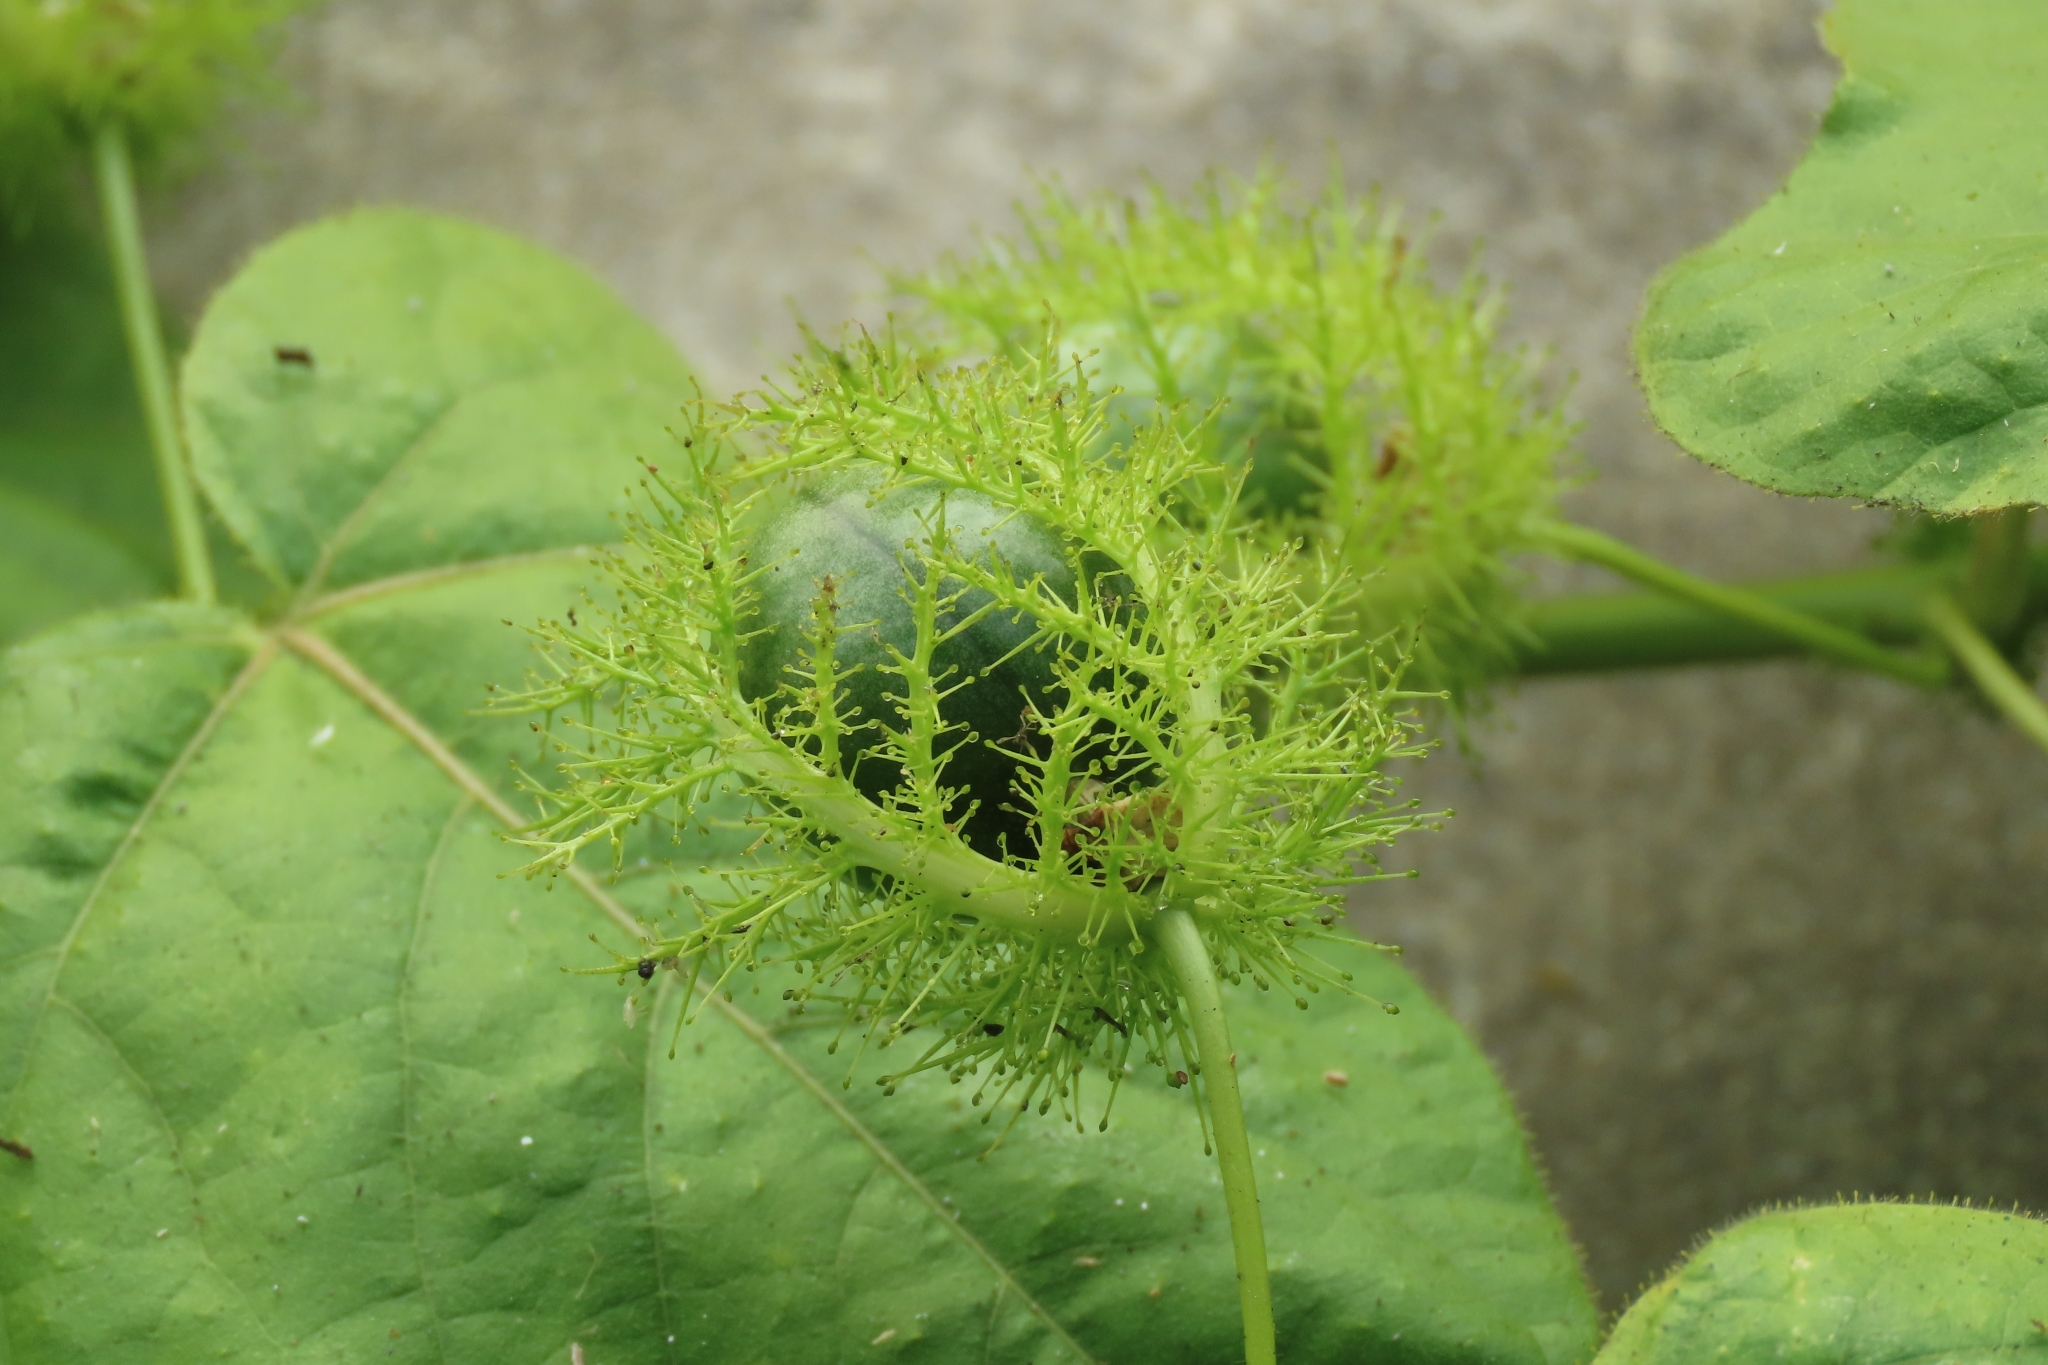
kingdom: Plantae
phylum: Tracheophyta
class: Magnoliopsida
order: Malpighiales
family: Passifloraceae
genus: Passiflora
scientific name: Passiflora vesicaria
